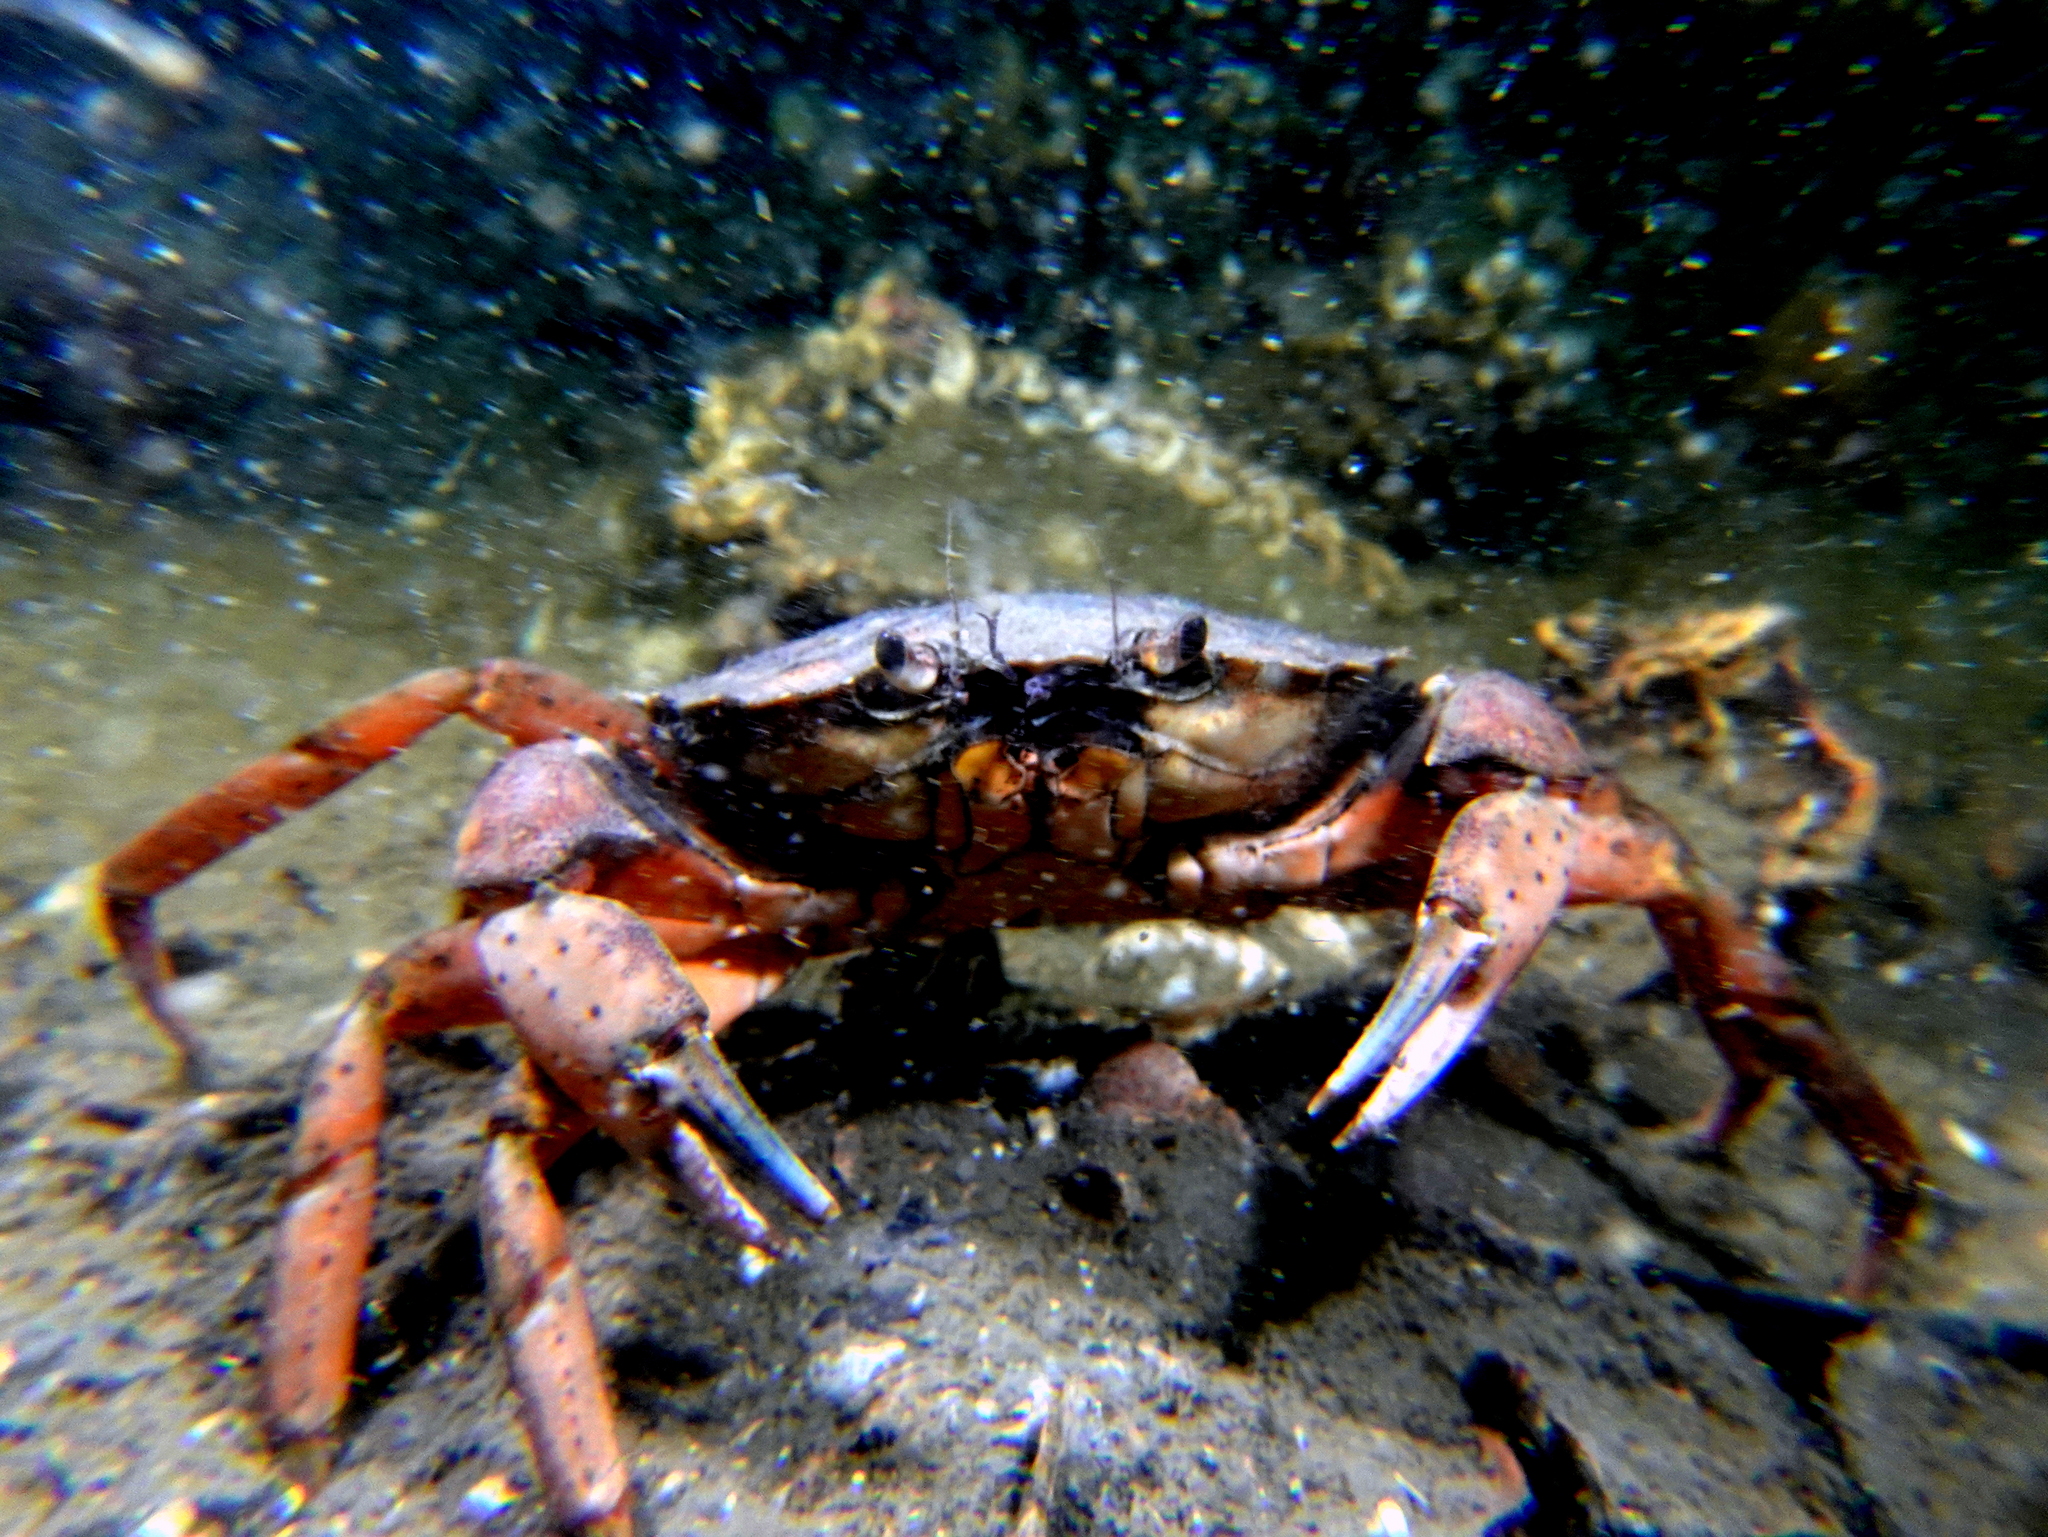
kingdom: Animalia
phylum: Arthropoda
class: Malacostraca
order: Decapoda
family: Carcinidae
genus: Carcinus
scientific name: Carcinus maenas
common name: European green crab
